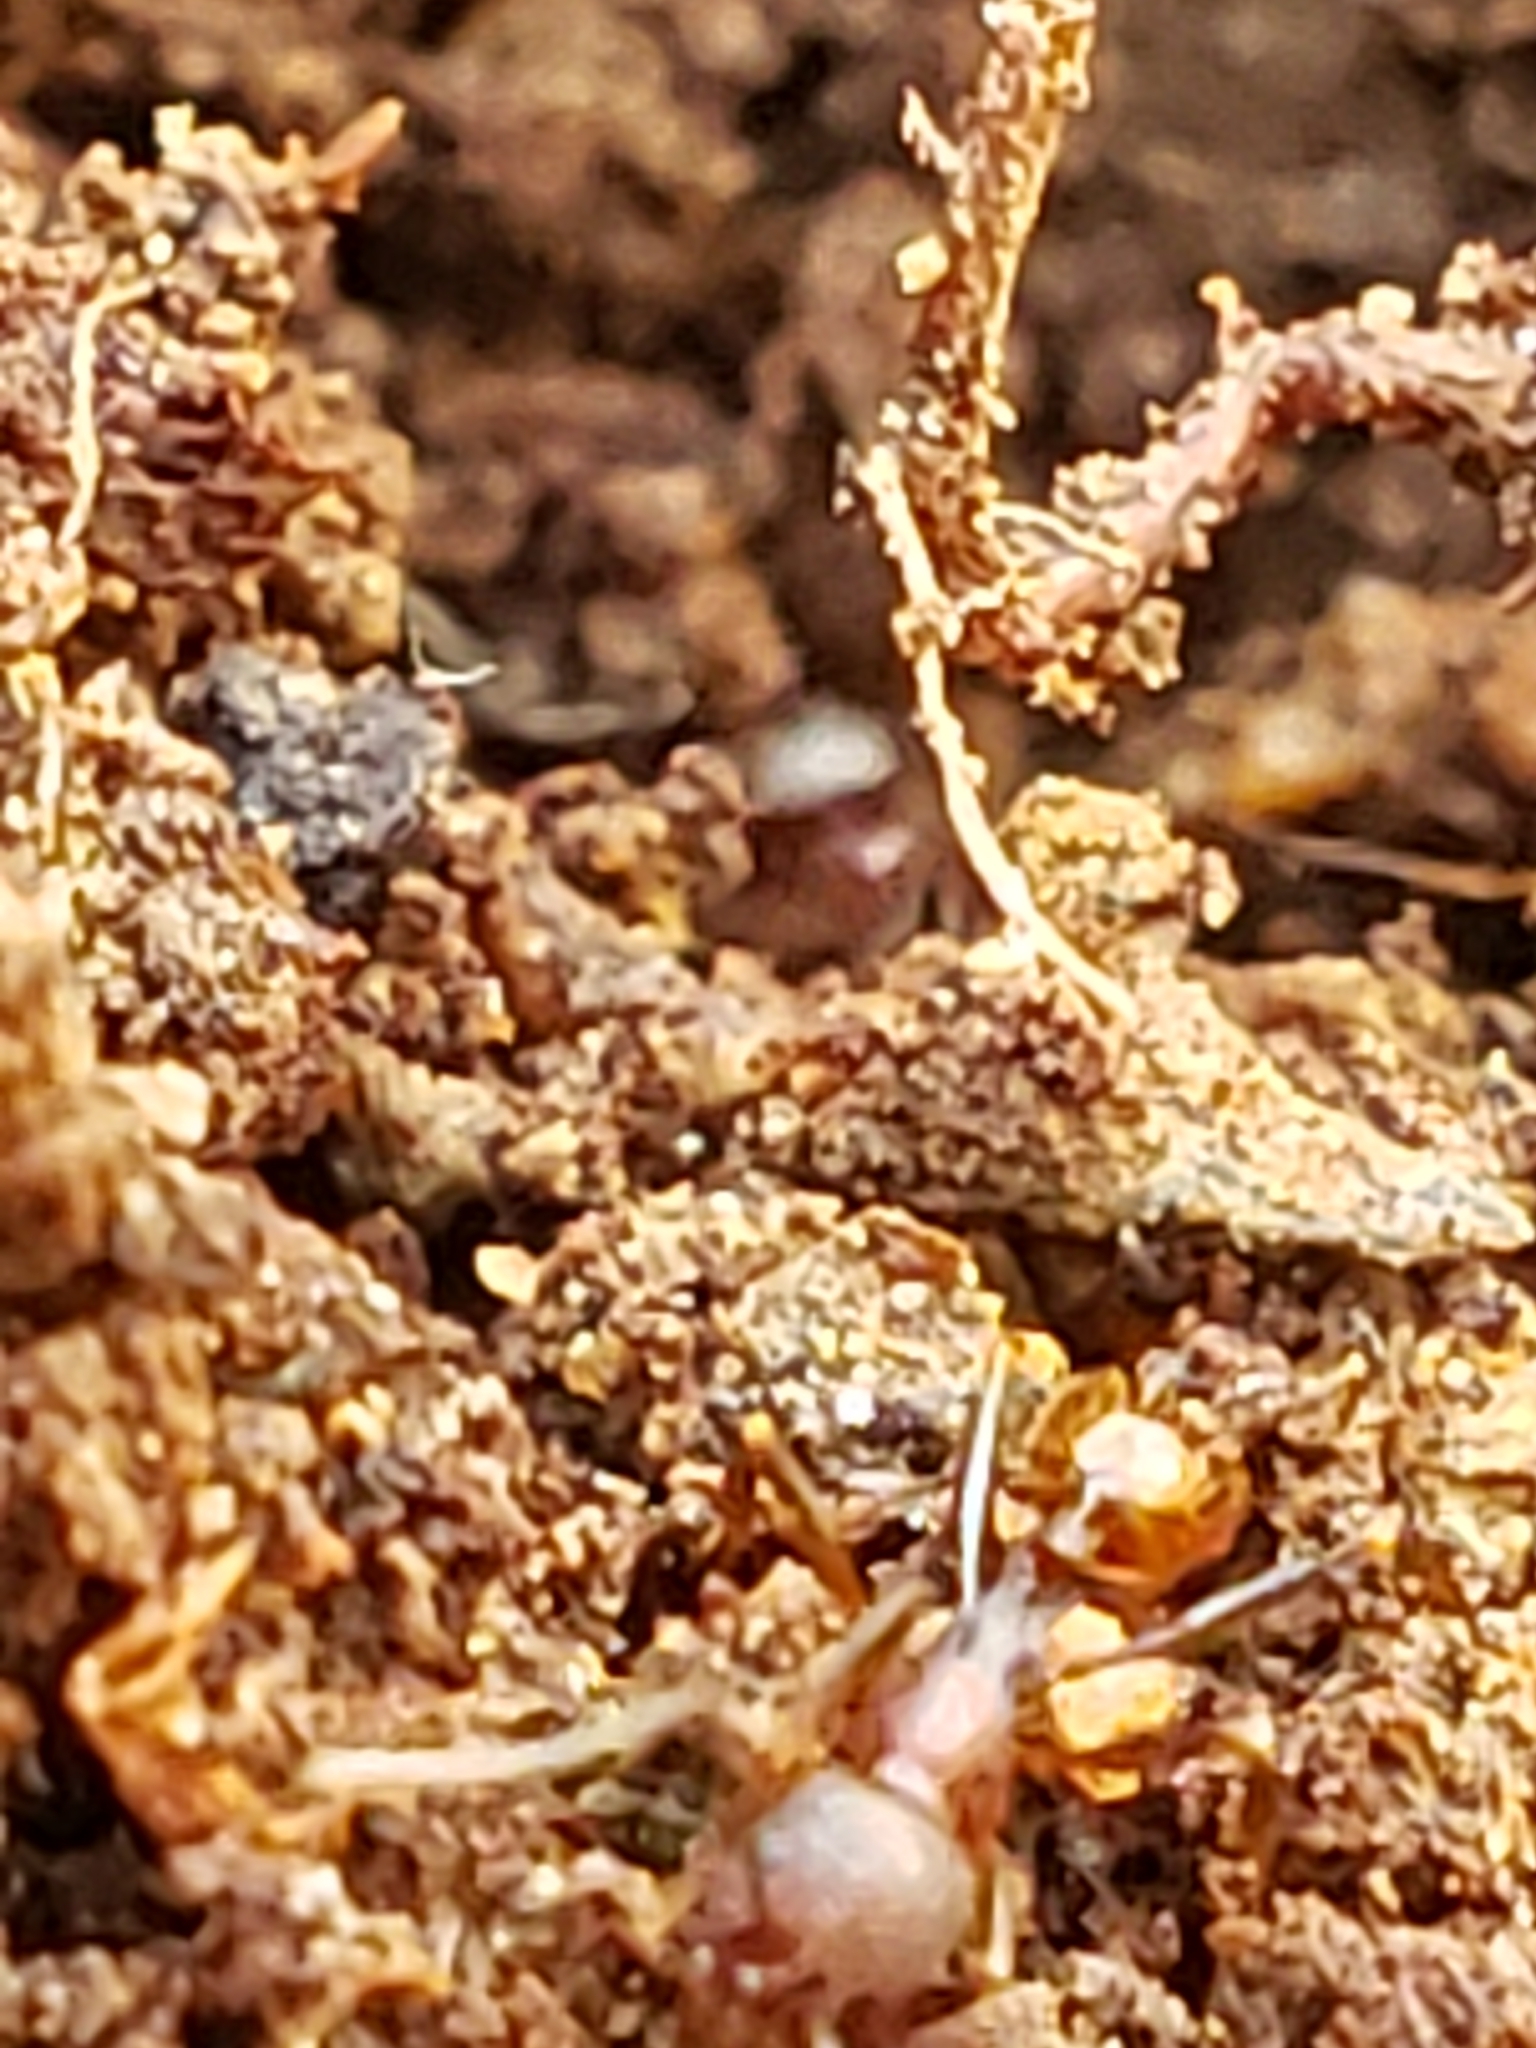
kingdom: Animalia
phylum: Arthropoda
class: Insecta
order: Hymenoptera
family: Formicidae
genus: Aphaenogaster
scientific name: Aphaenogaster fulva
